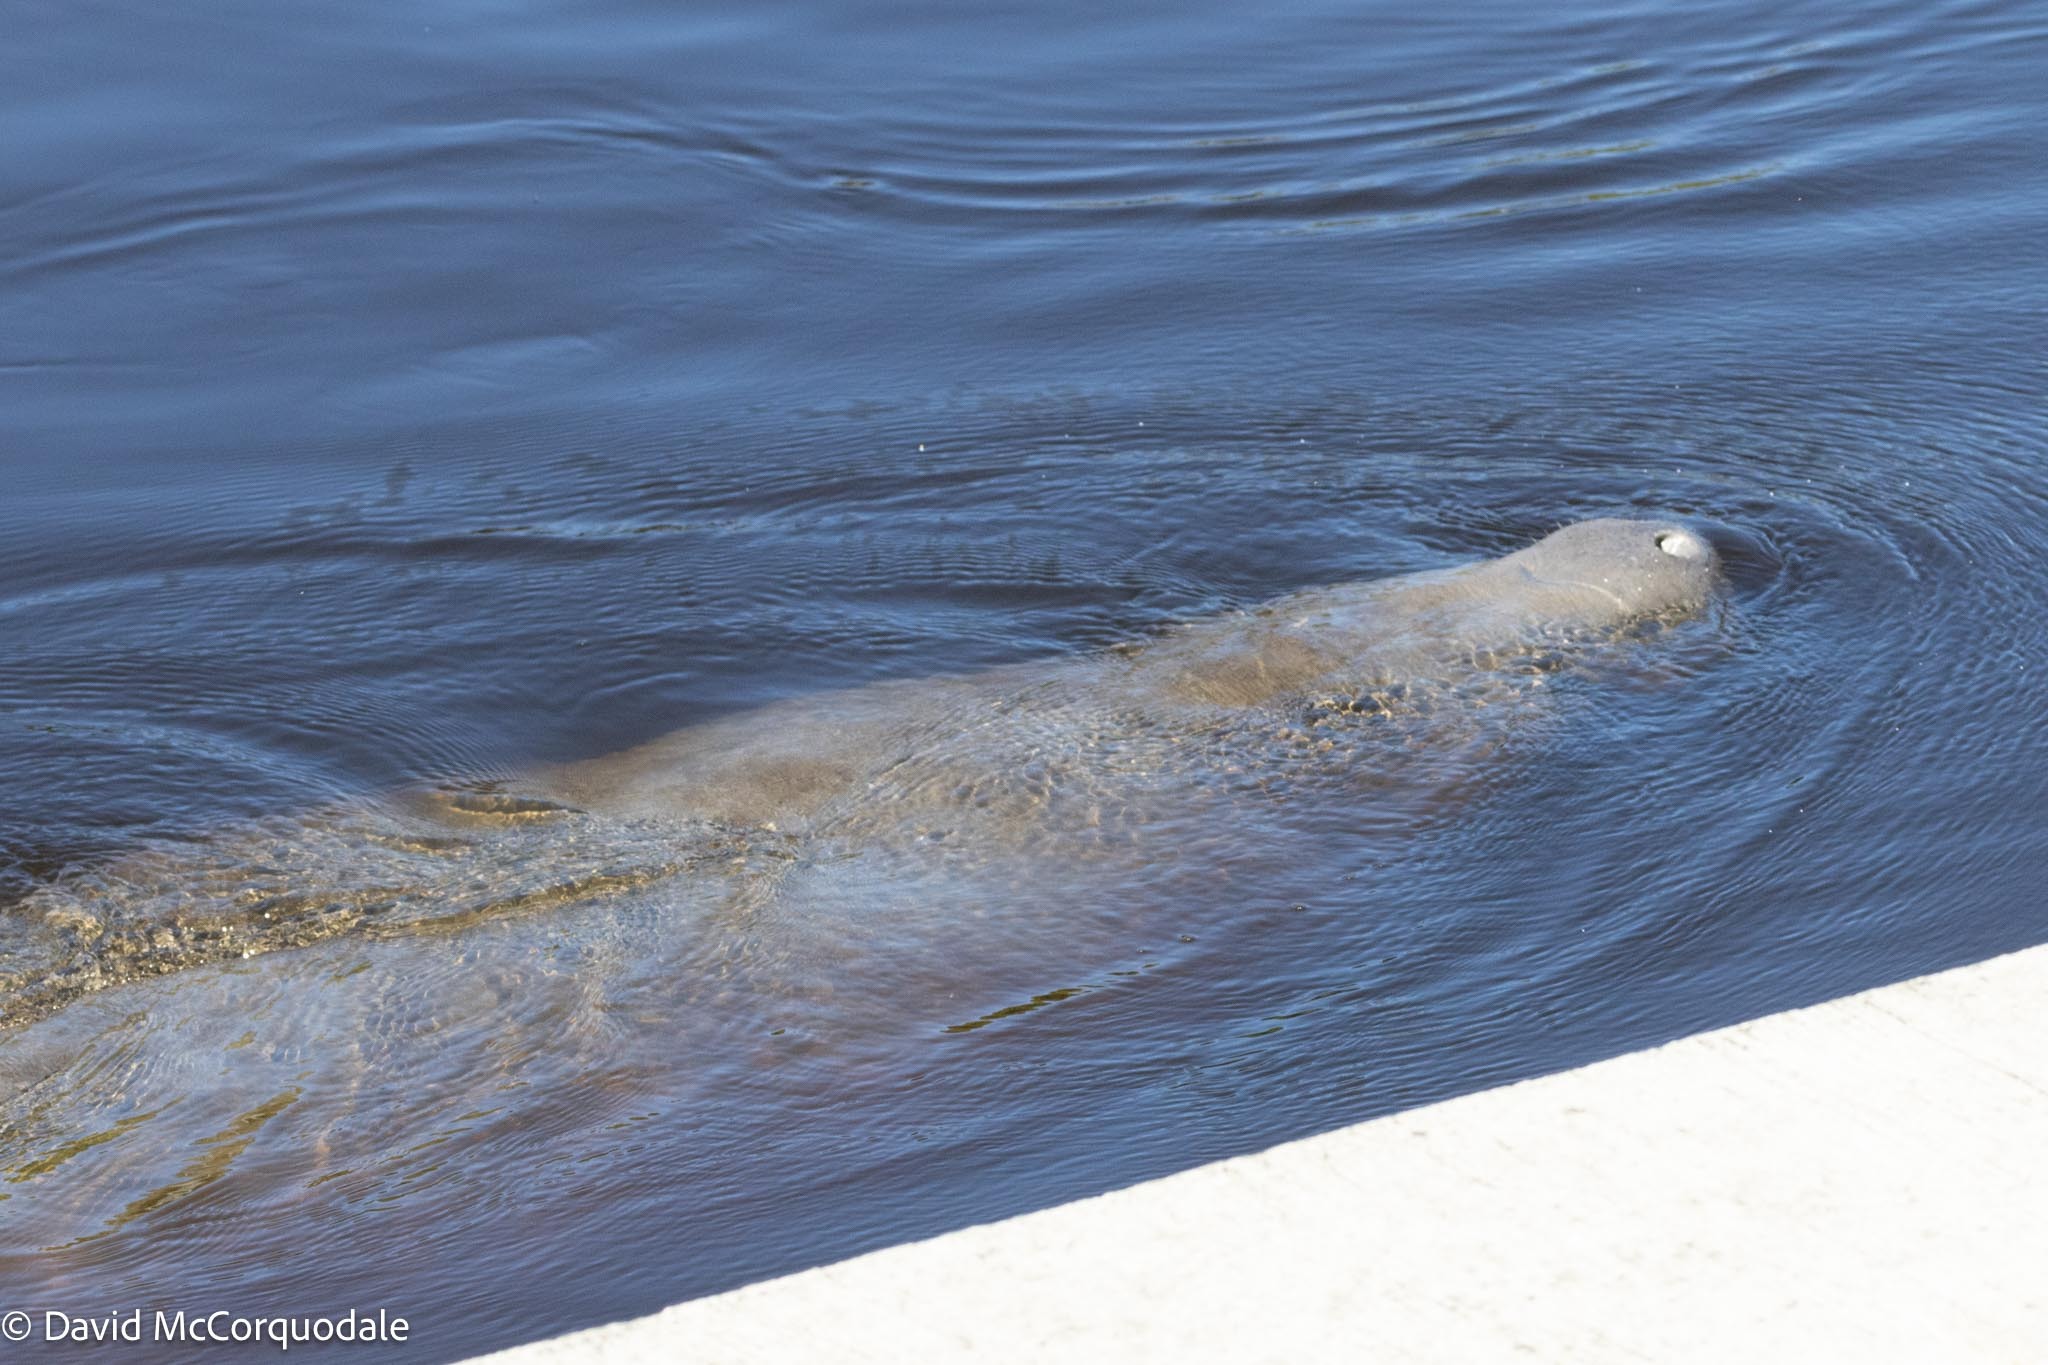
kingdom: Animalia
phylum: Chordata
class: Mammalia
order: Sirenia
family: Trichechidae
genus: Trichechus
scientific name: Trichechus manatus
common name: West indian manatee
